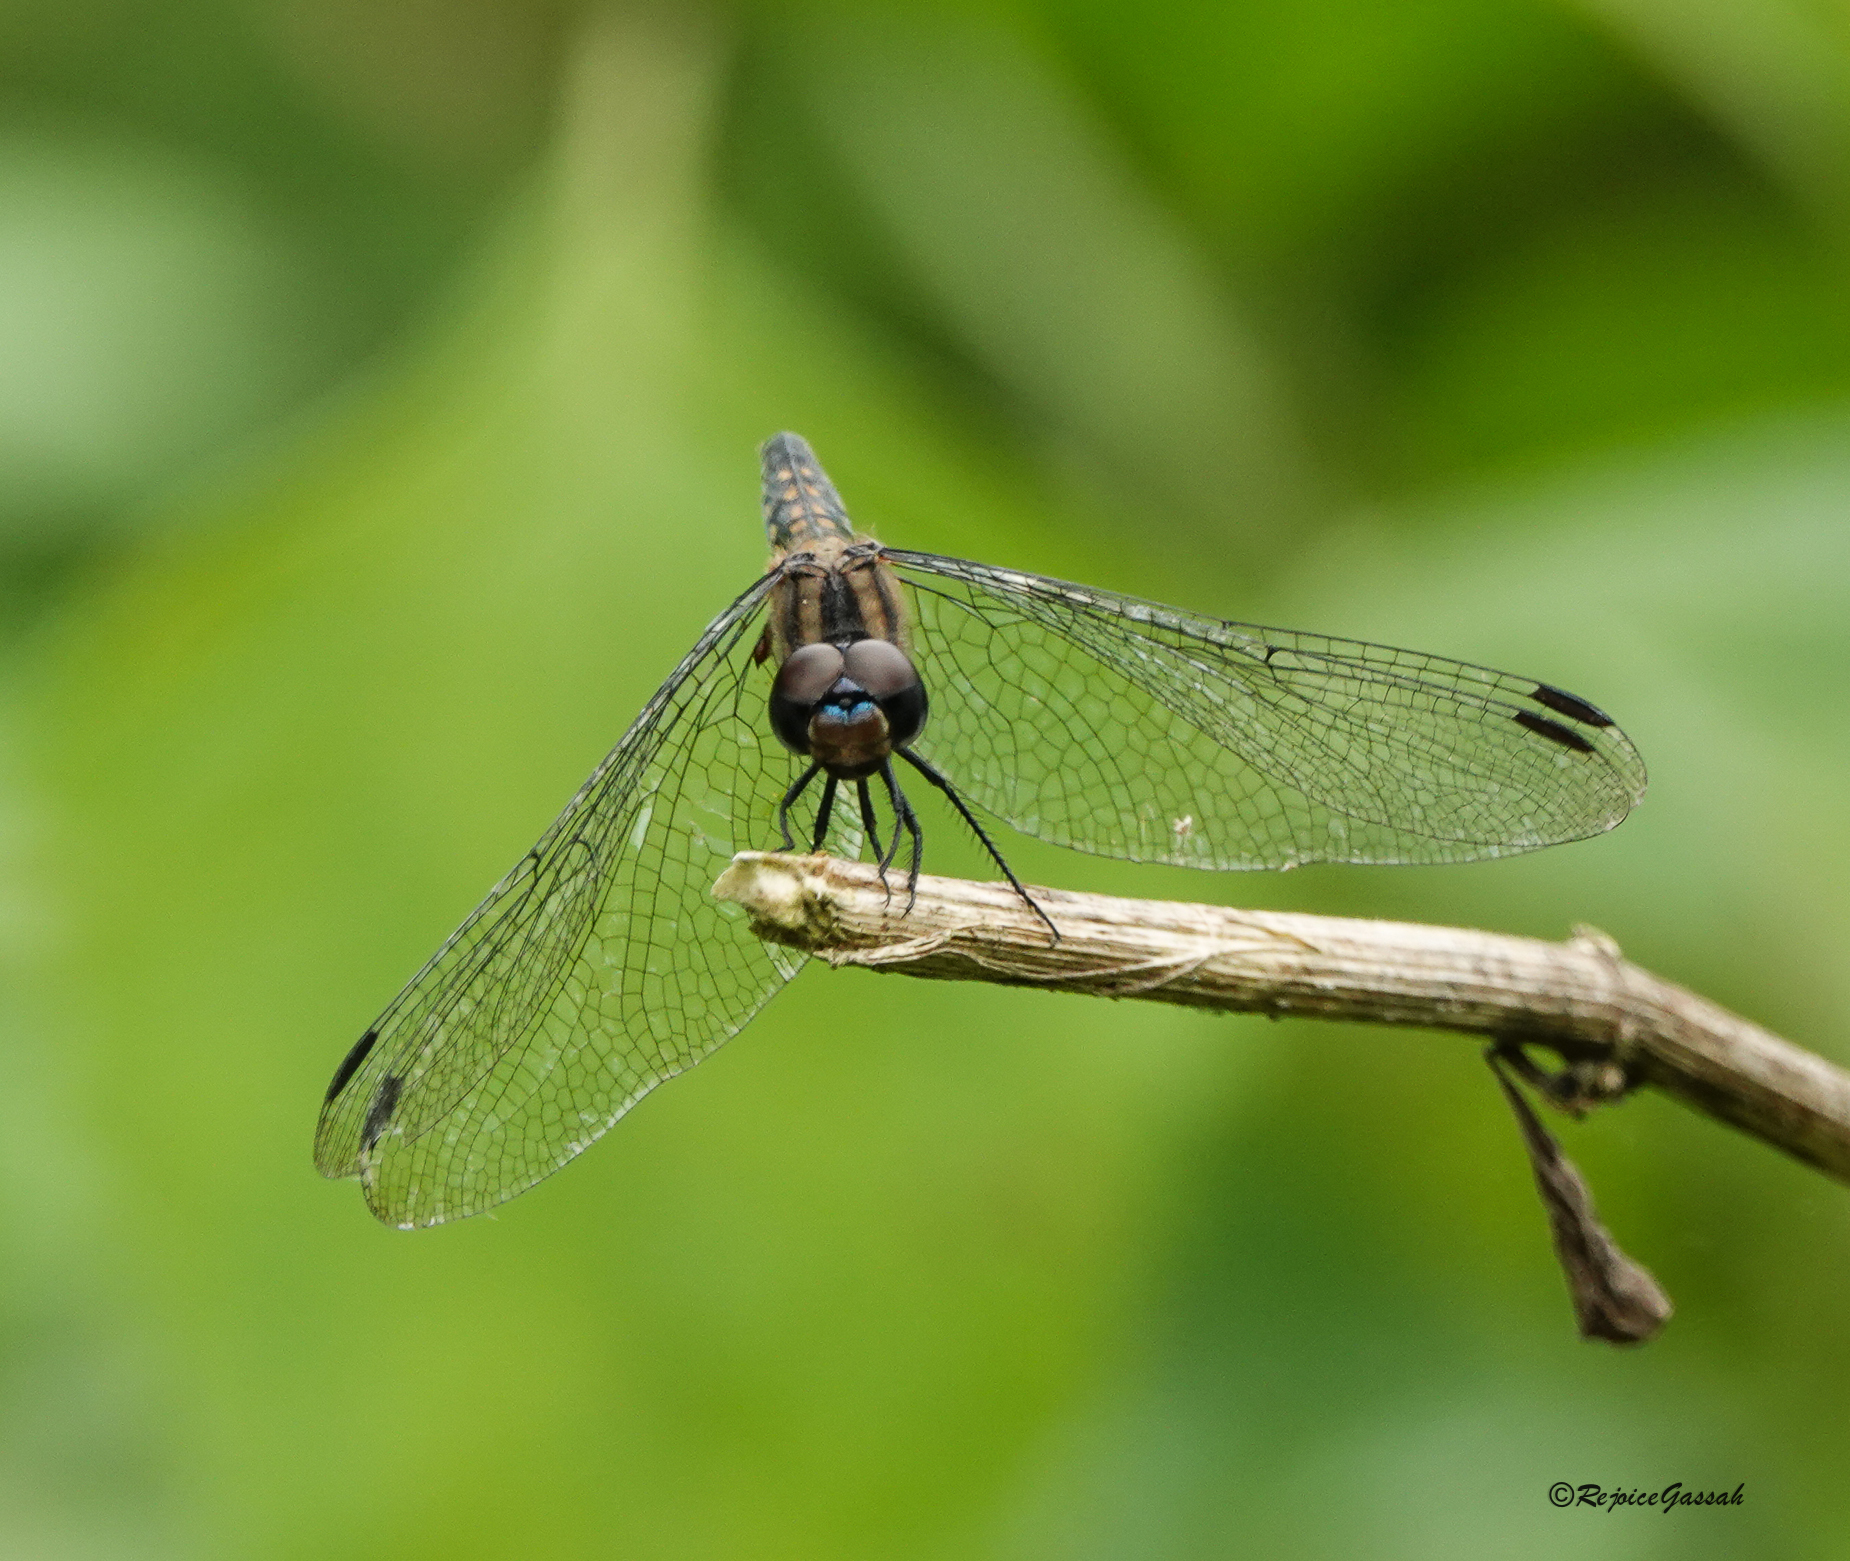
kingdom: Animalia
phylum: Arthropoda
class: Insecta
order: Odonata
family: Libellulidae
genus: Trithemis
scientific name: Trithemis festiva
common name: Indigo dropwing
